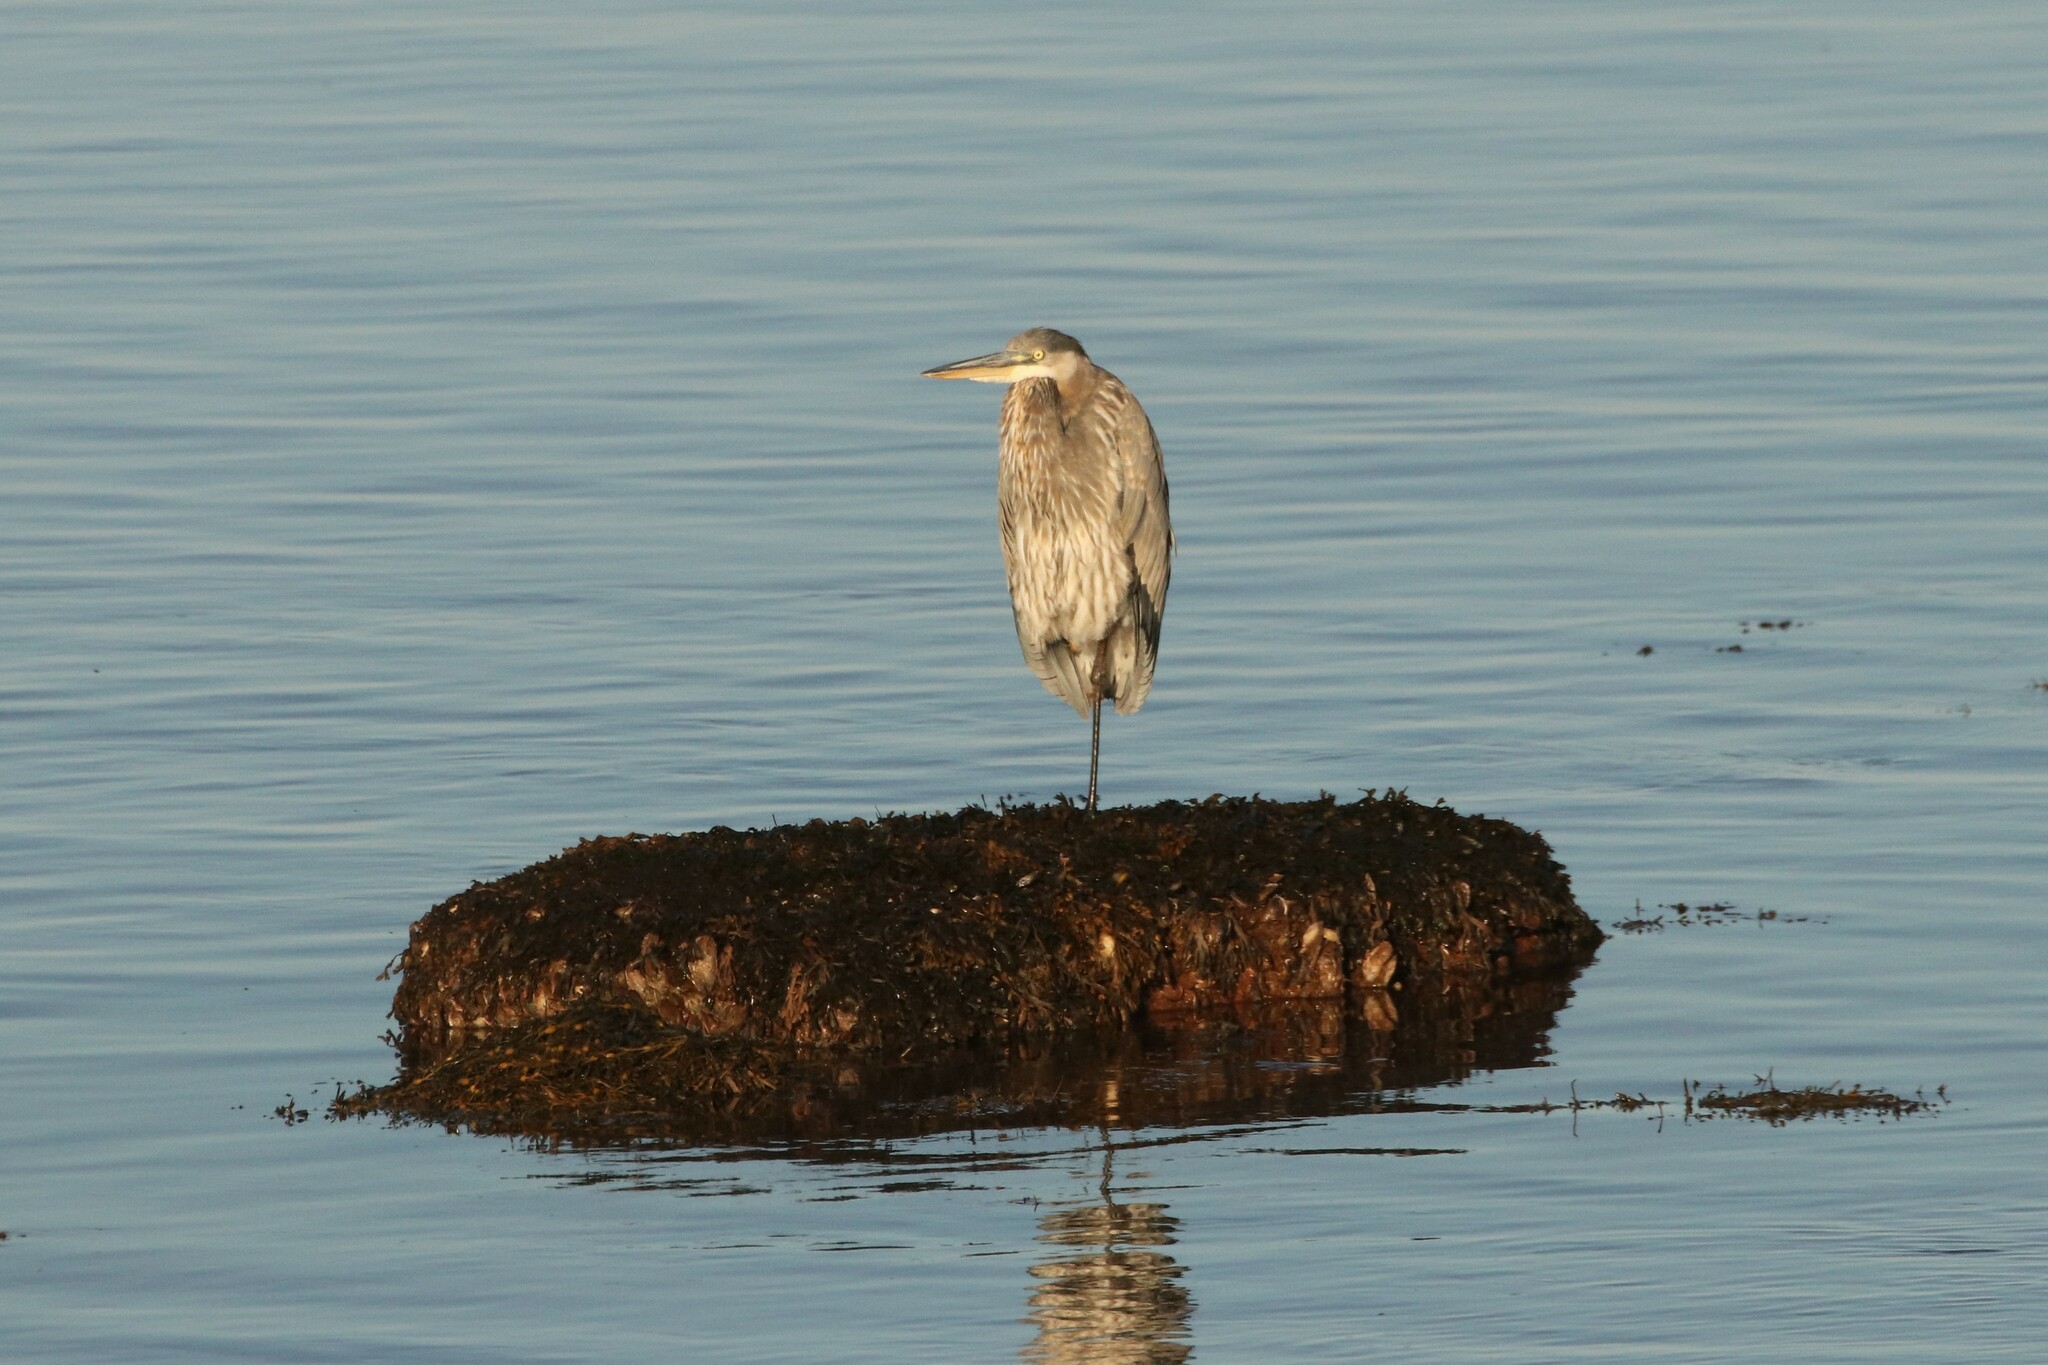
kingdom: Animalia
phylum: Chordata
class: Aves
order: Pelecaniformes
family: Ardeidae
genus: Ardea
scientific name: Ardea herodias
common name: Great blue heron
